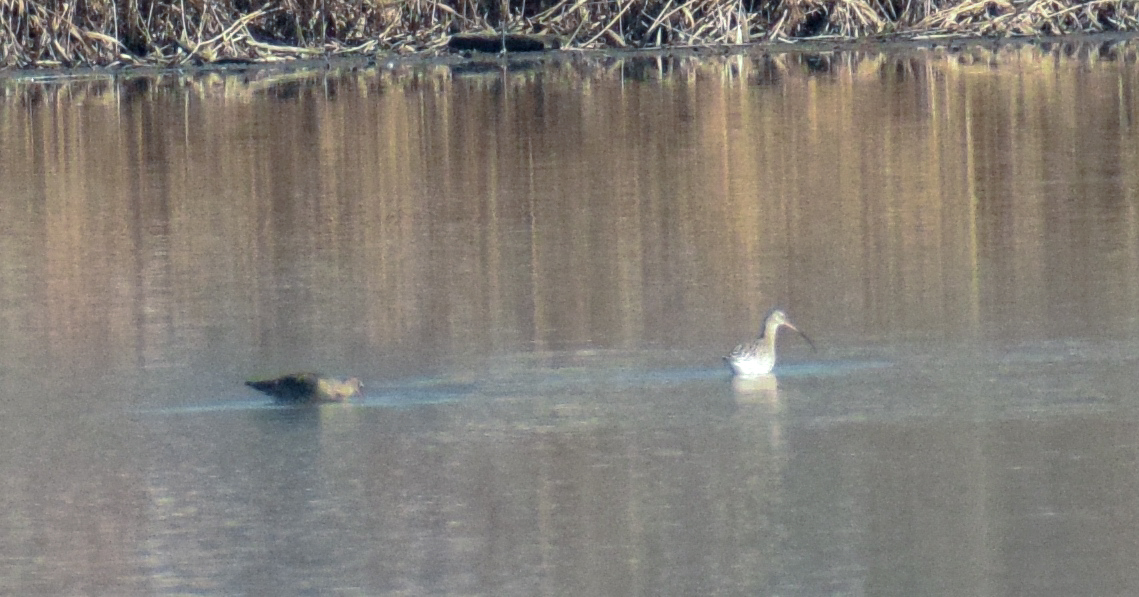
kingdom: Animalia
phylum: Chordata
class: Aves
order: Charadriiformes
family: Scolopacidae
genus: Numenius
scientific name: Numenius arquata
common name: Eurasian curlew
